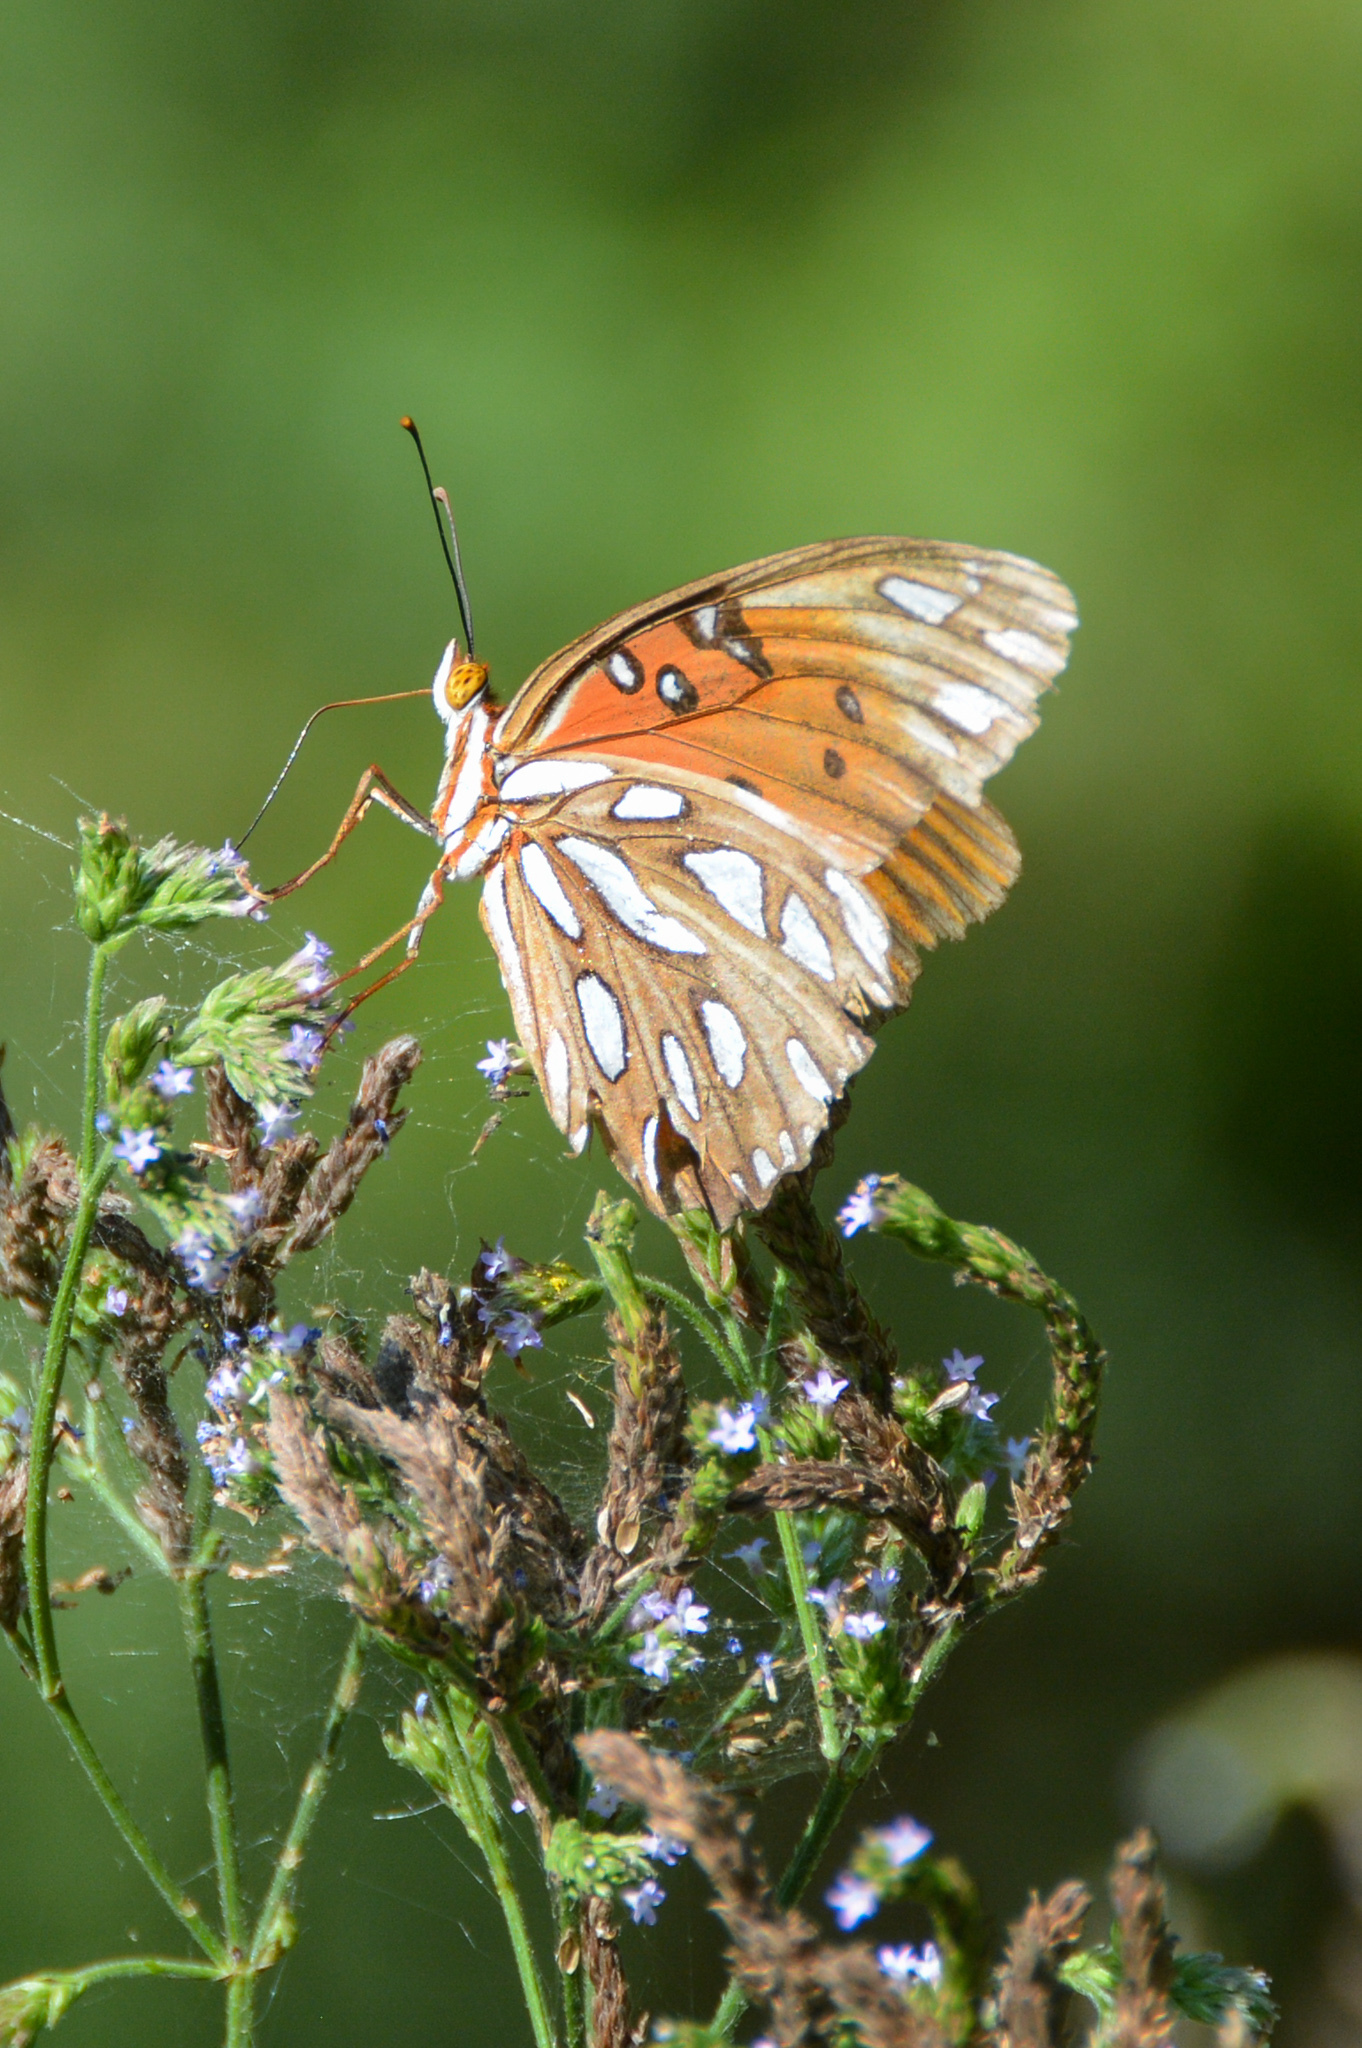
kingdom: Animalia
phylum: Arthropoda
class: Insecta
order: Lepidoptera
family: Nymphalidae
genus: Dione
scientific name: Dione vanillae
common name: Gulf fritillary
